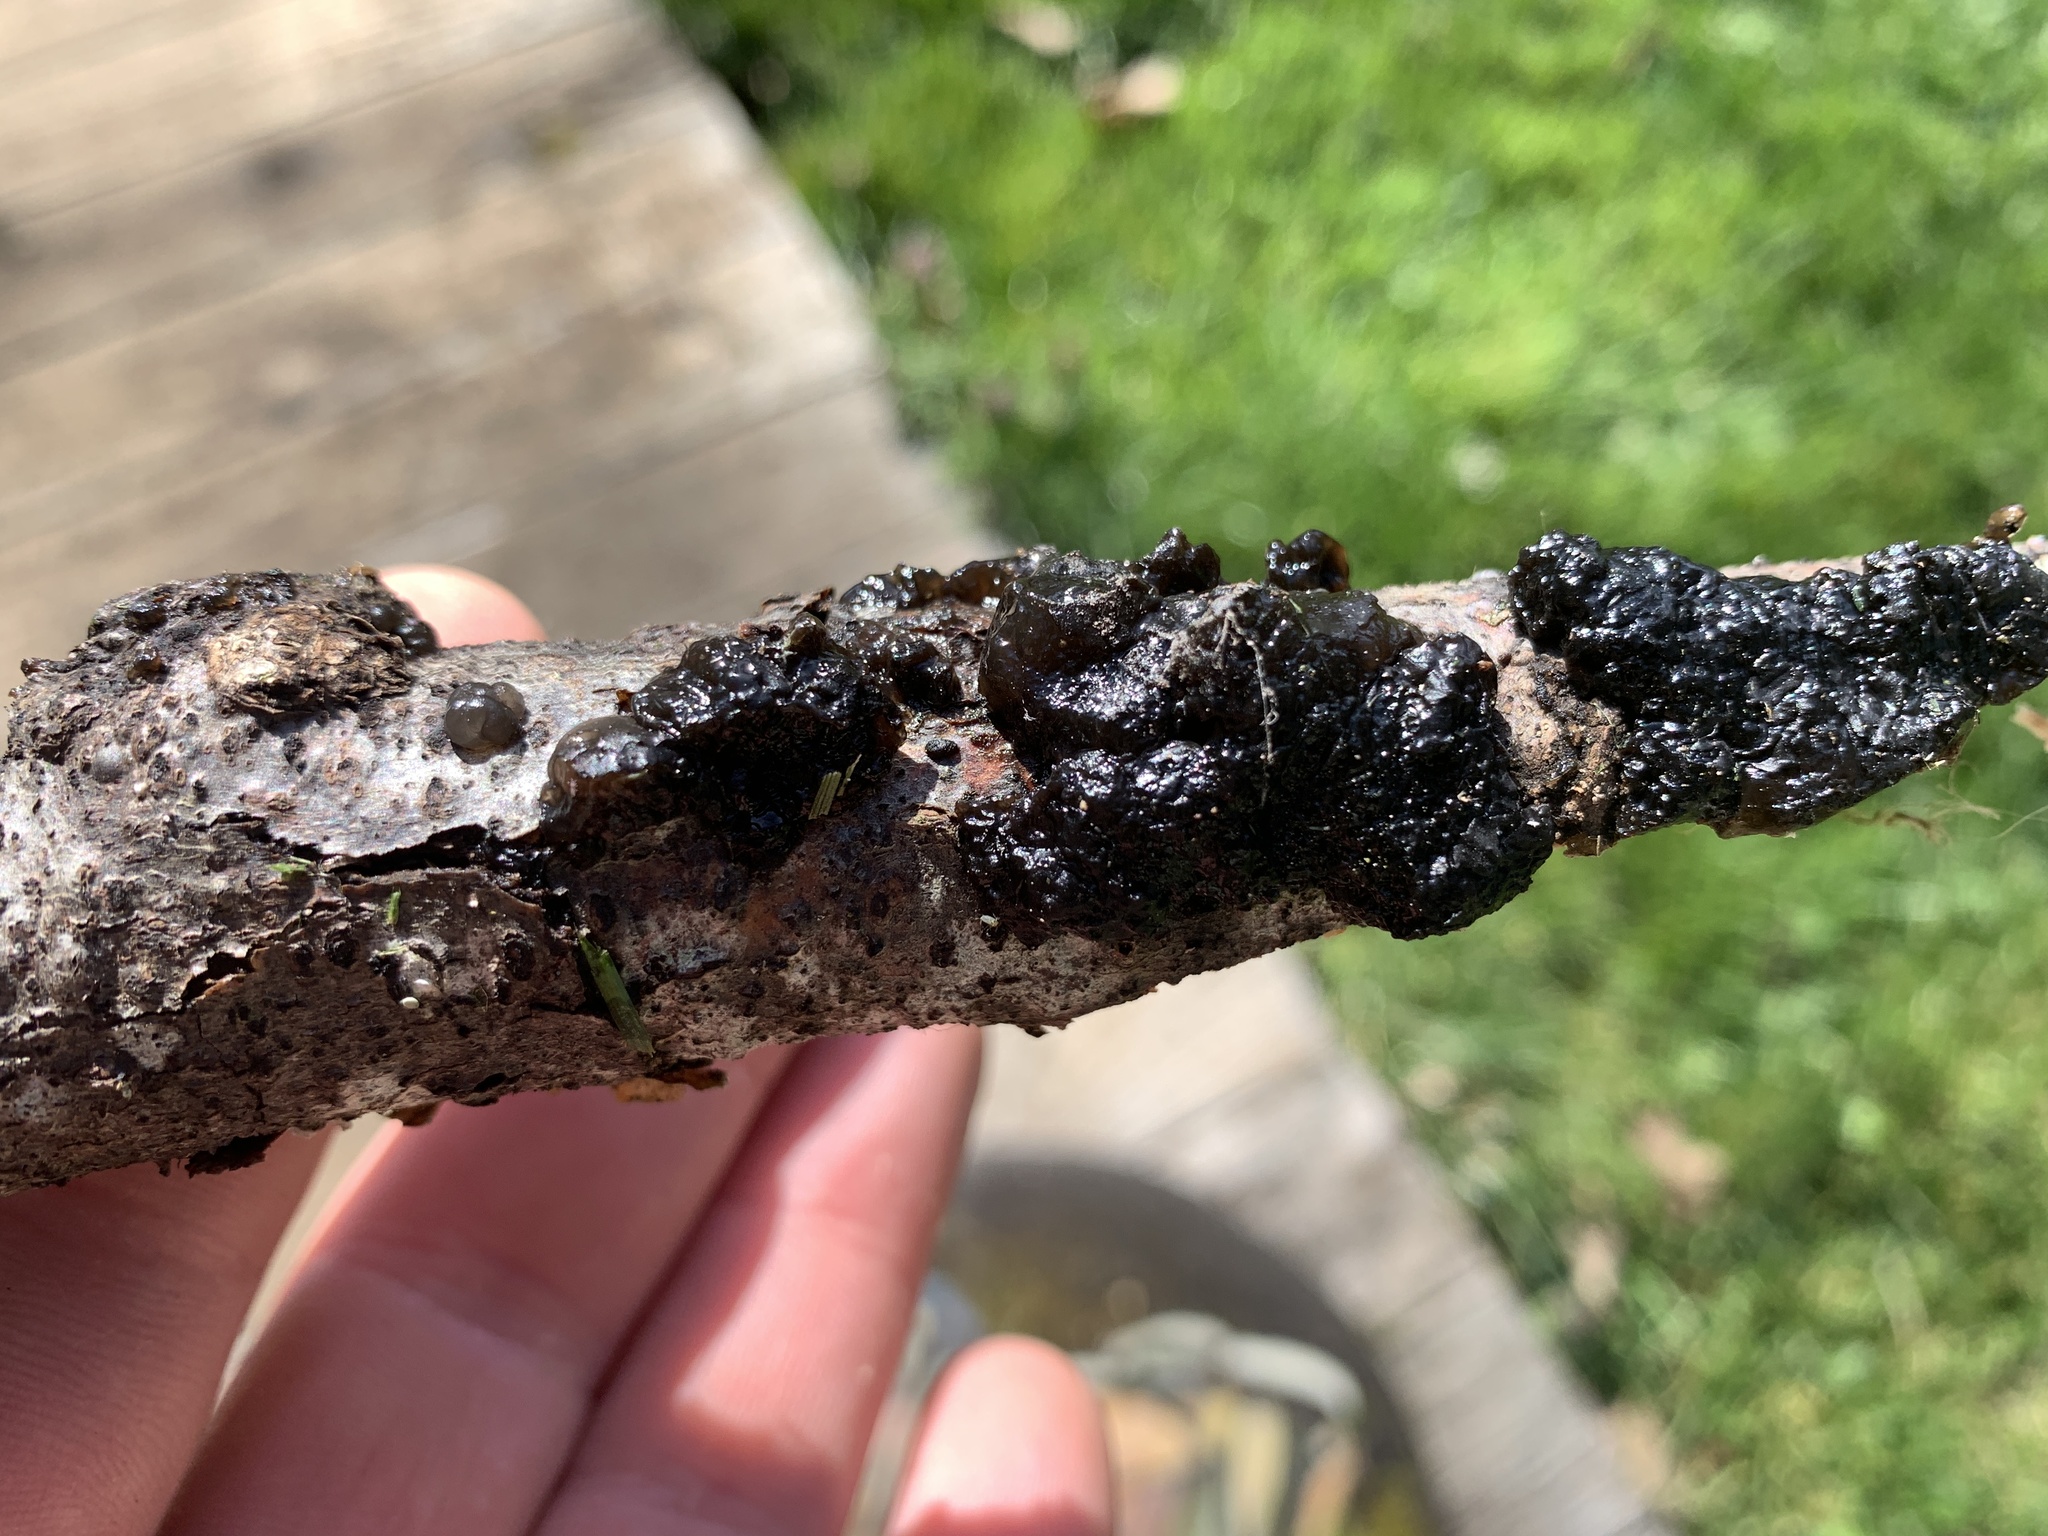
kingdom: Fungi
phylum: Basidiomycota
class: Agaricomycetes
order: Auriculariales
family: Auriculariaceae
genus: Exidia
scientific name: Exidia glandulosa
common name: Witches' butter
